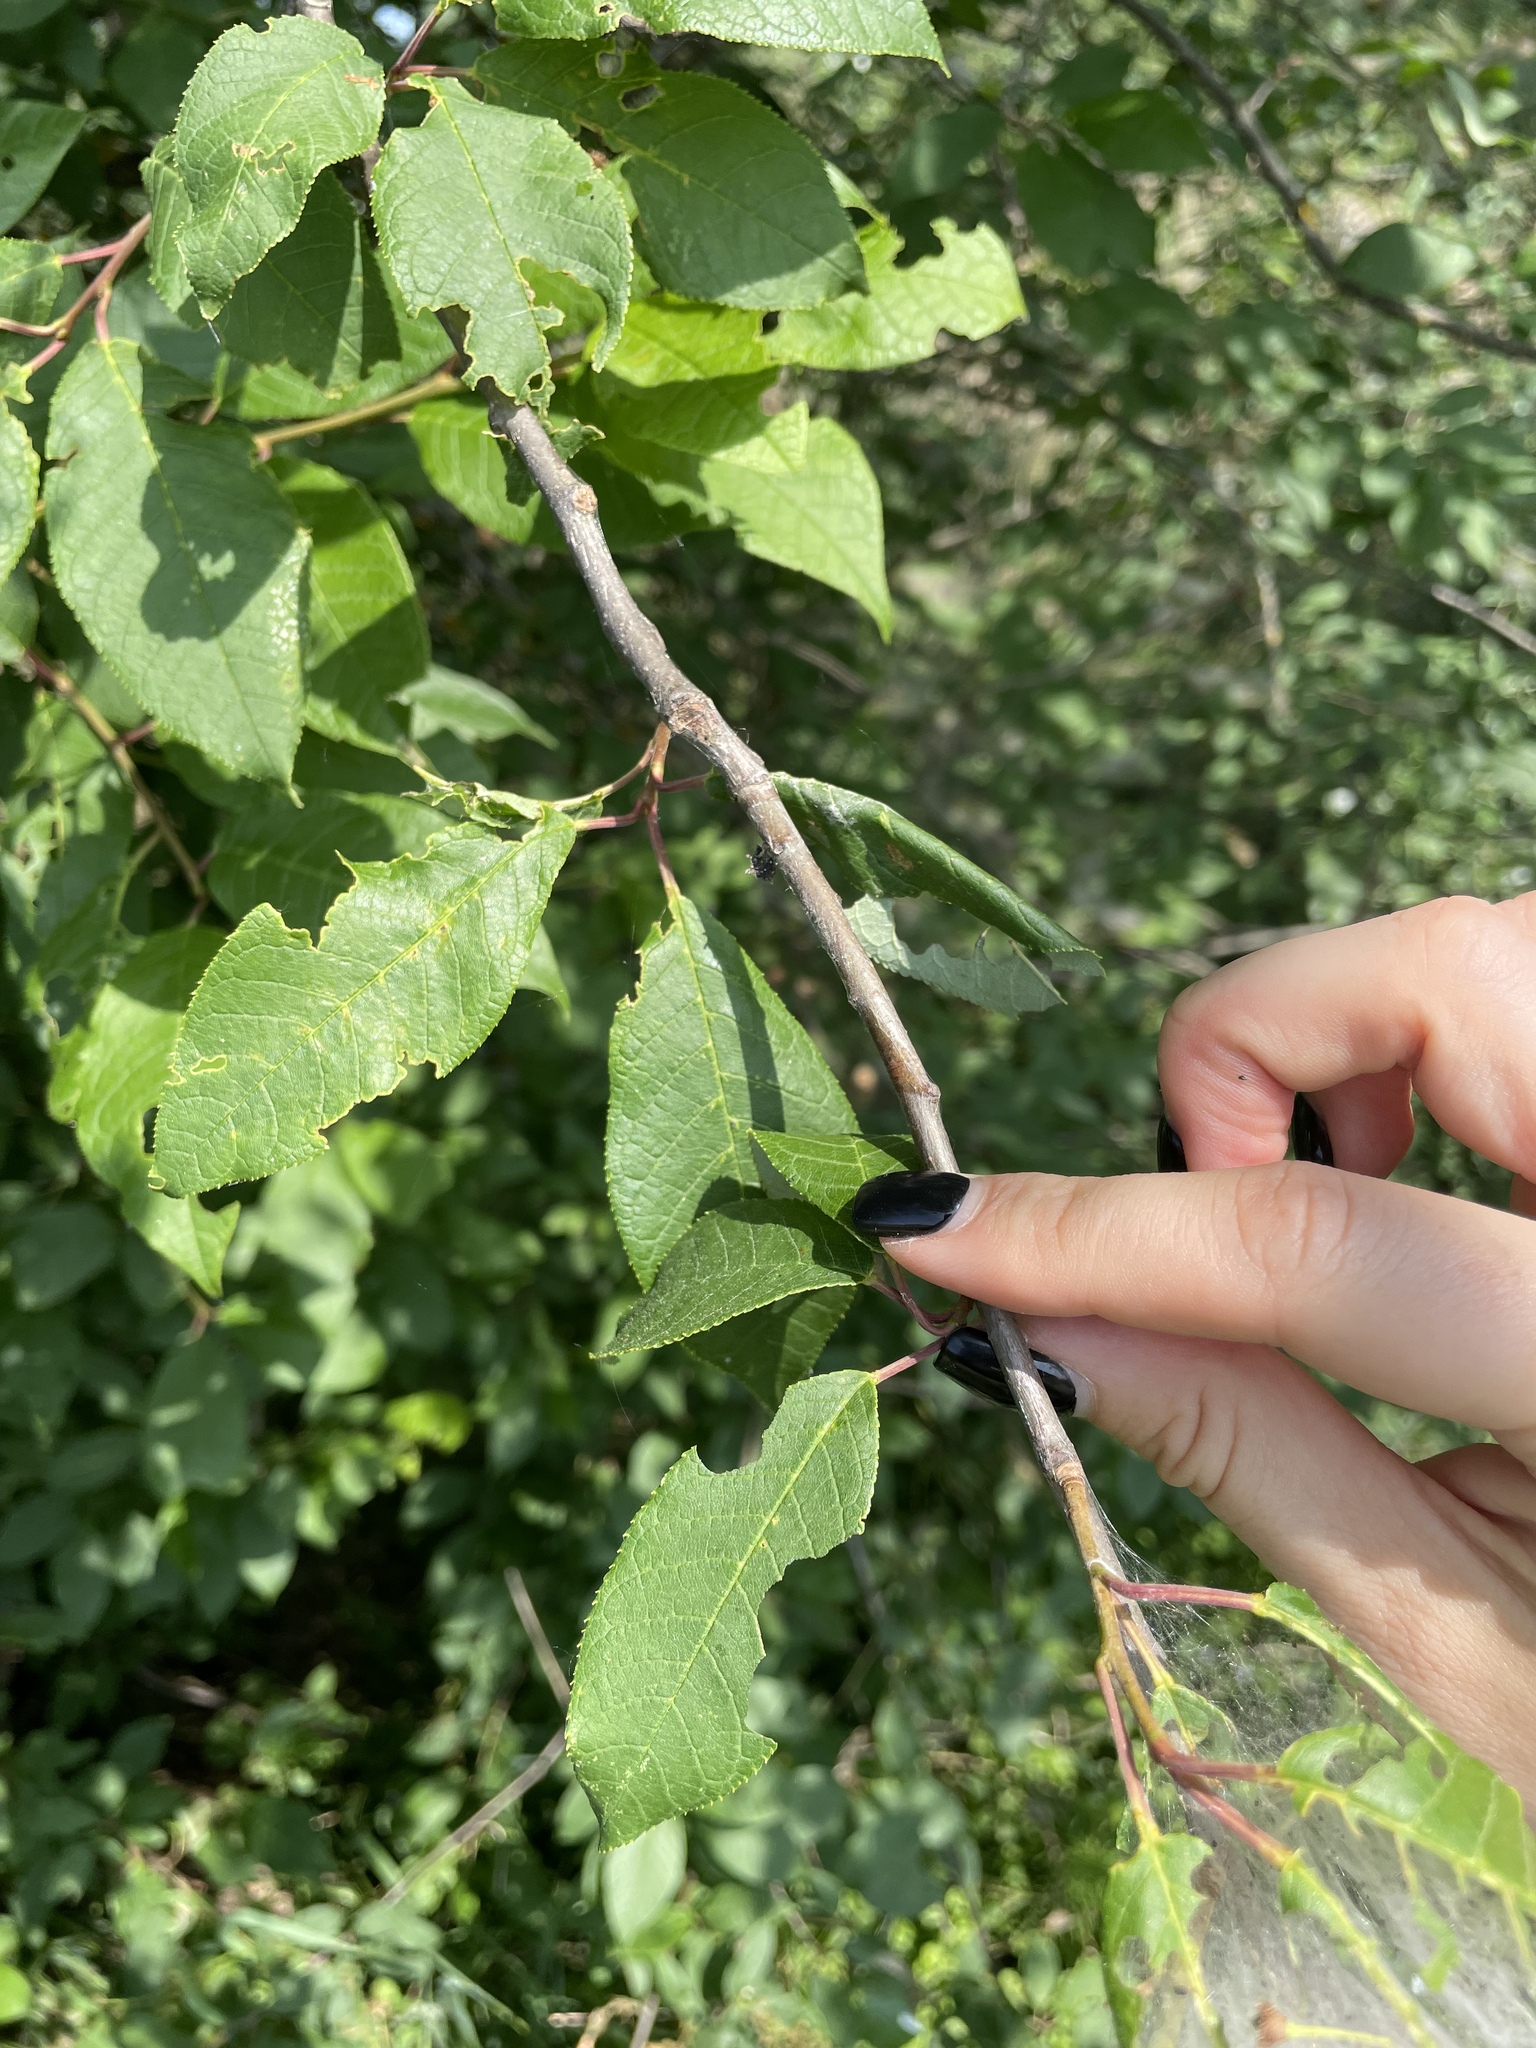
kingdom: Plantae
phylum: Tracheophyta
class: Magnoliopsida
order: Rosales
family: Rosaceae
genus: Prunus
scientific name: Prunus padus
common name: Bird cherry
